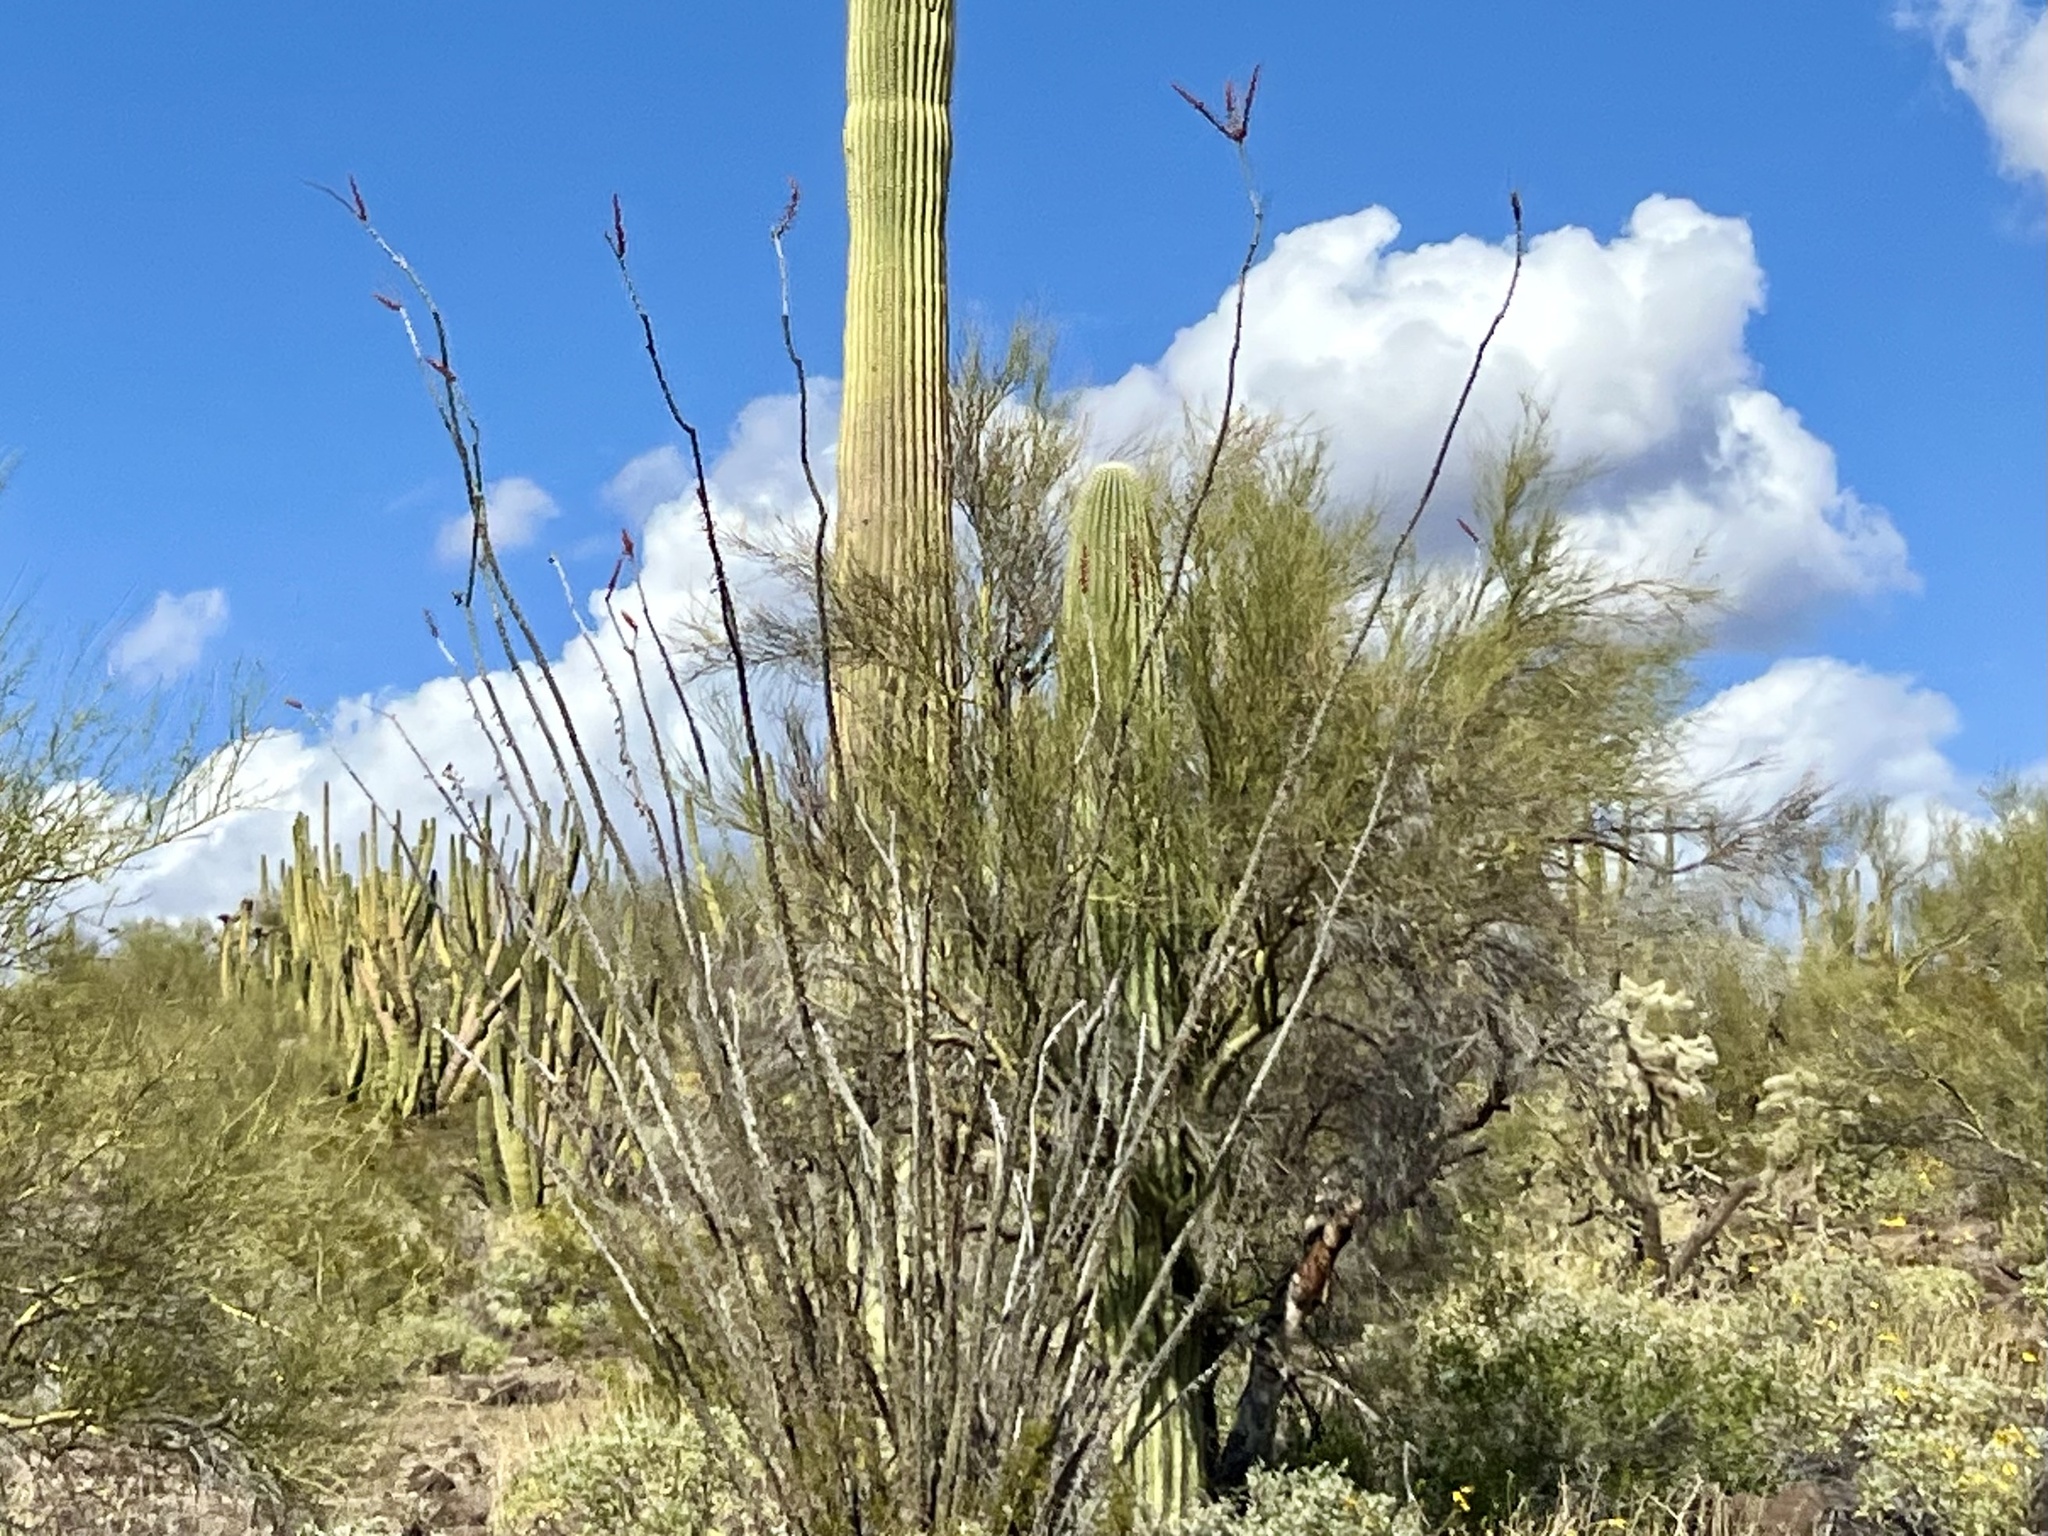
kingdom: Plantae
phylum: Tracheophyta
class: Magnoliopsida
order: Ericales
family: Fouquieriaceae
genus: Fouquieria
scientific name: Fouquieria splendens
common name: Vine-cactus
